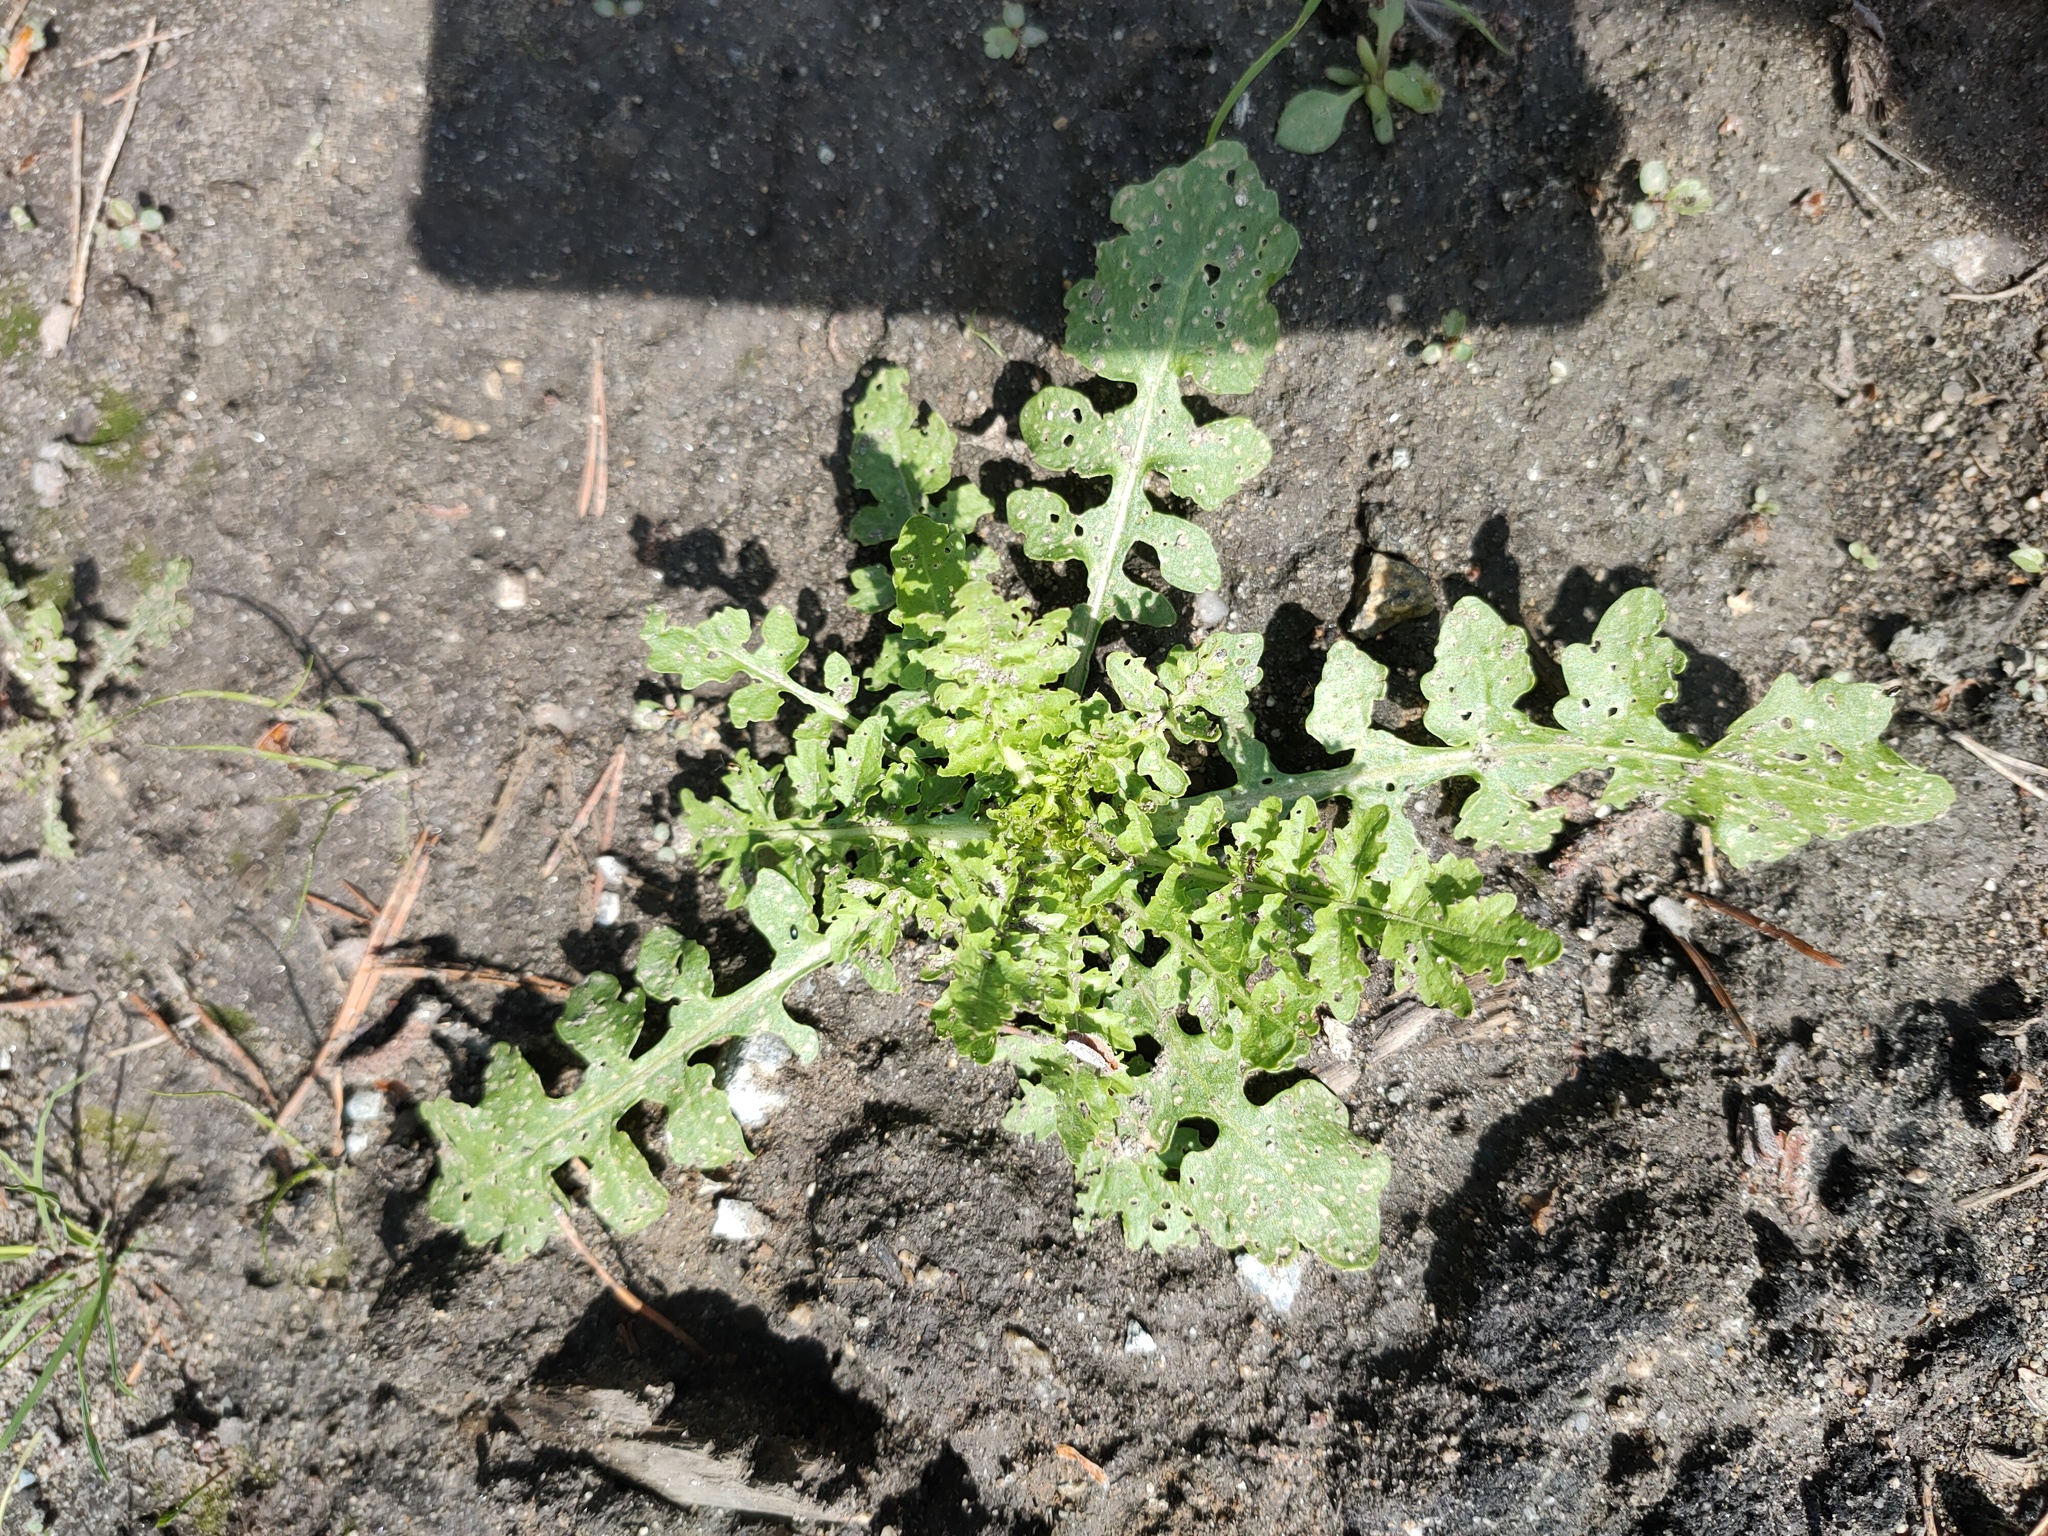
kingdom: Plantae
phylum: Tracheophyta
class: Magnoliopsida
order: Brassicales
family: Brassicaceae
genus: Rorippa
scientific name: Rorippa palustris
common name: Marsh yellow-cress
